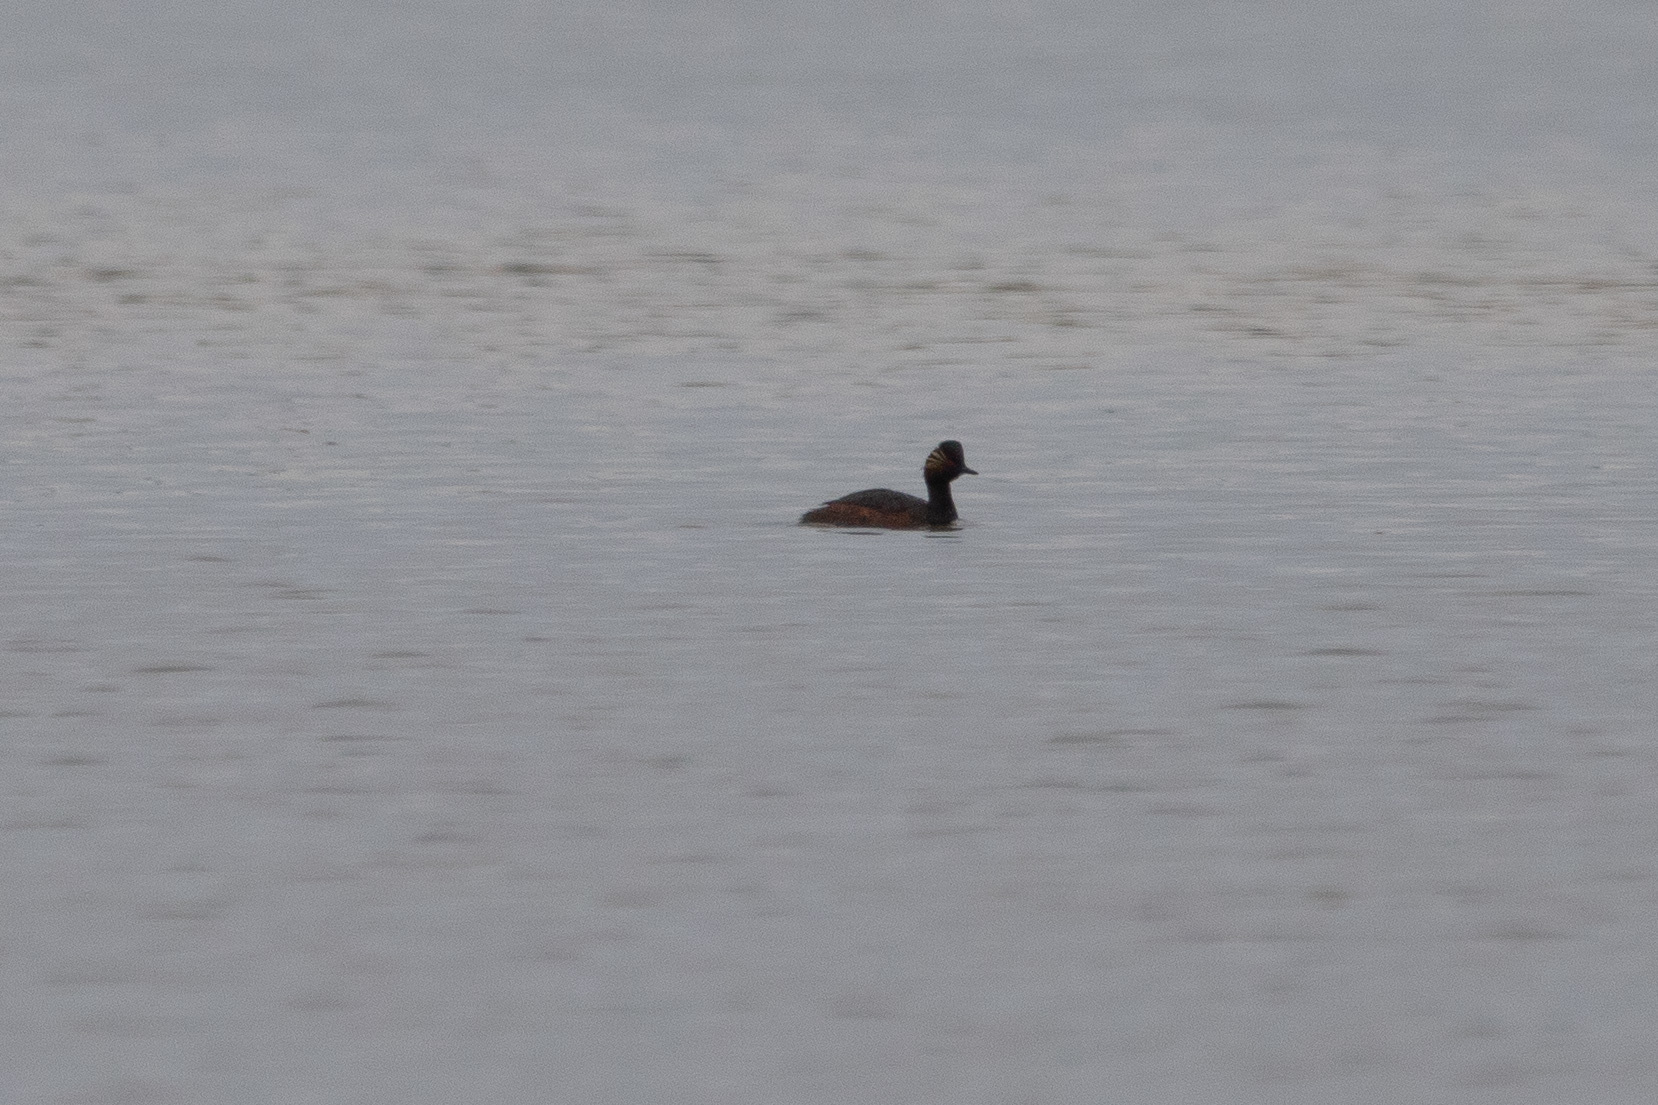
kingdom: Animalia
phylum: Chordata
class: Aves
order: Podicipediformes
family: Podicipedidae
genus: Podiceps
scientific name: Podiceps nigricollis
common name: Black-necked grebe
